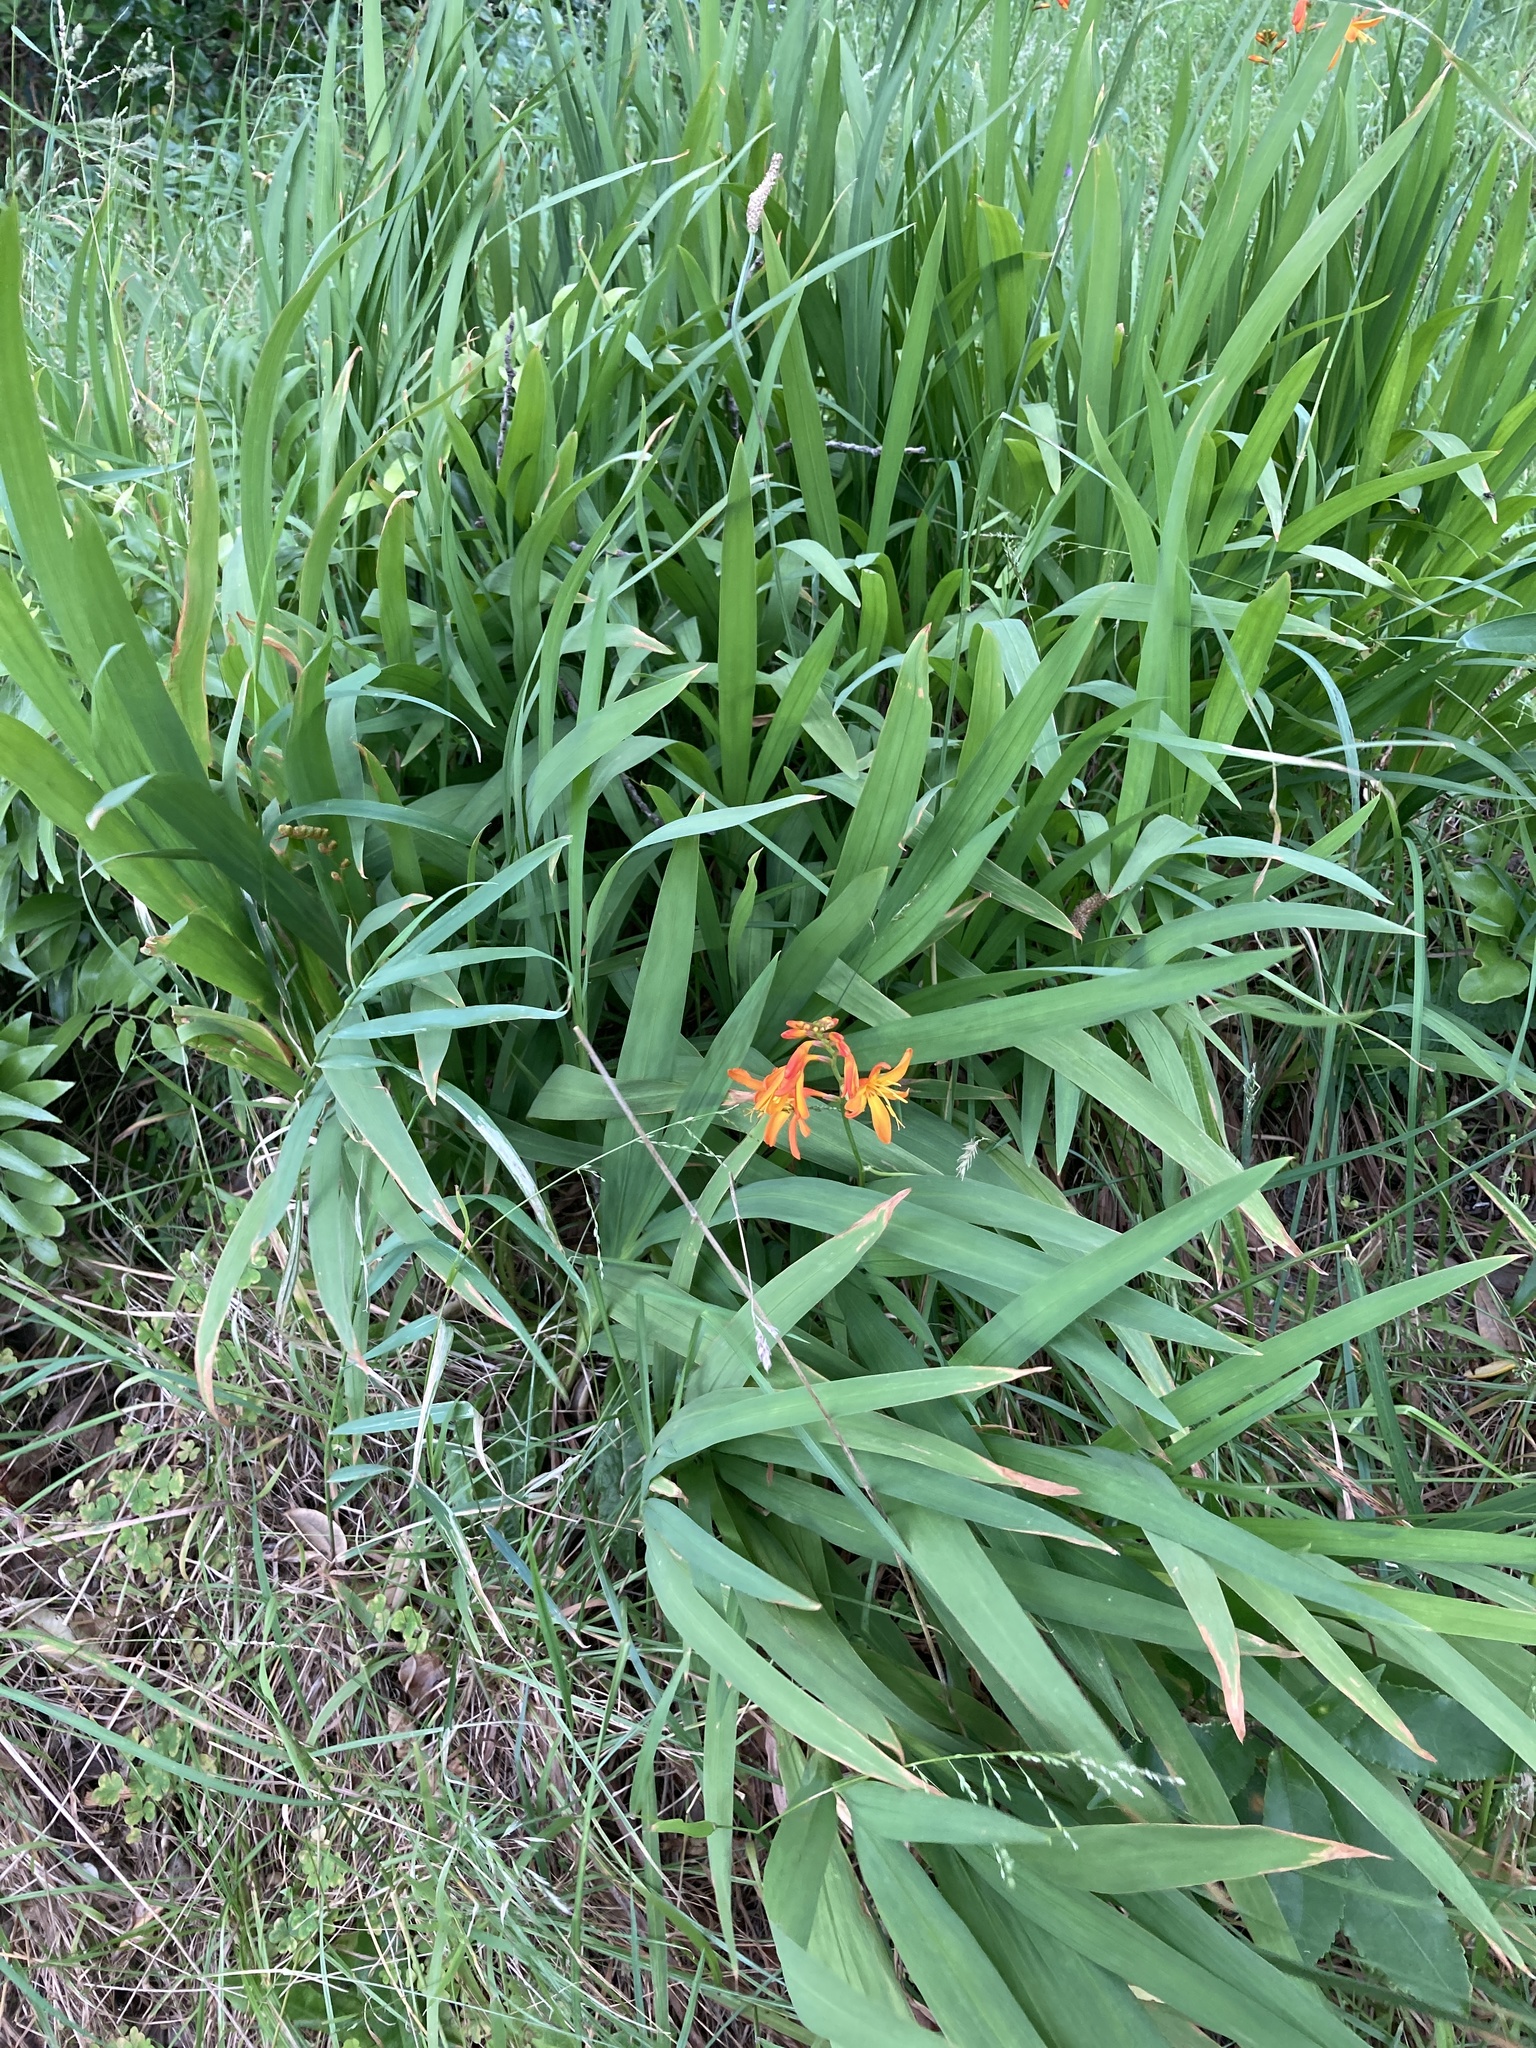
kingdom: Plantae
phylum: Tracheophyta
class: Liliopsida
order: Asparagales
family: Iridaceae
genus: Crocosmia
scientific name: Crocosmia crocosmiiflora
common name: Montbretia
